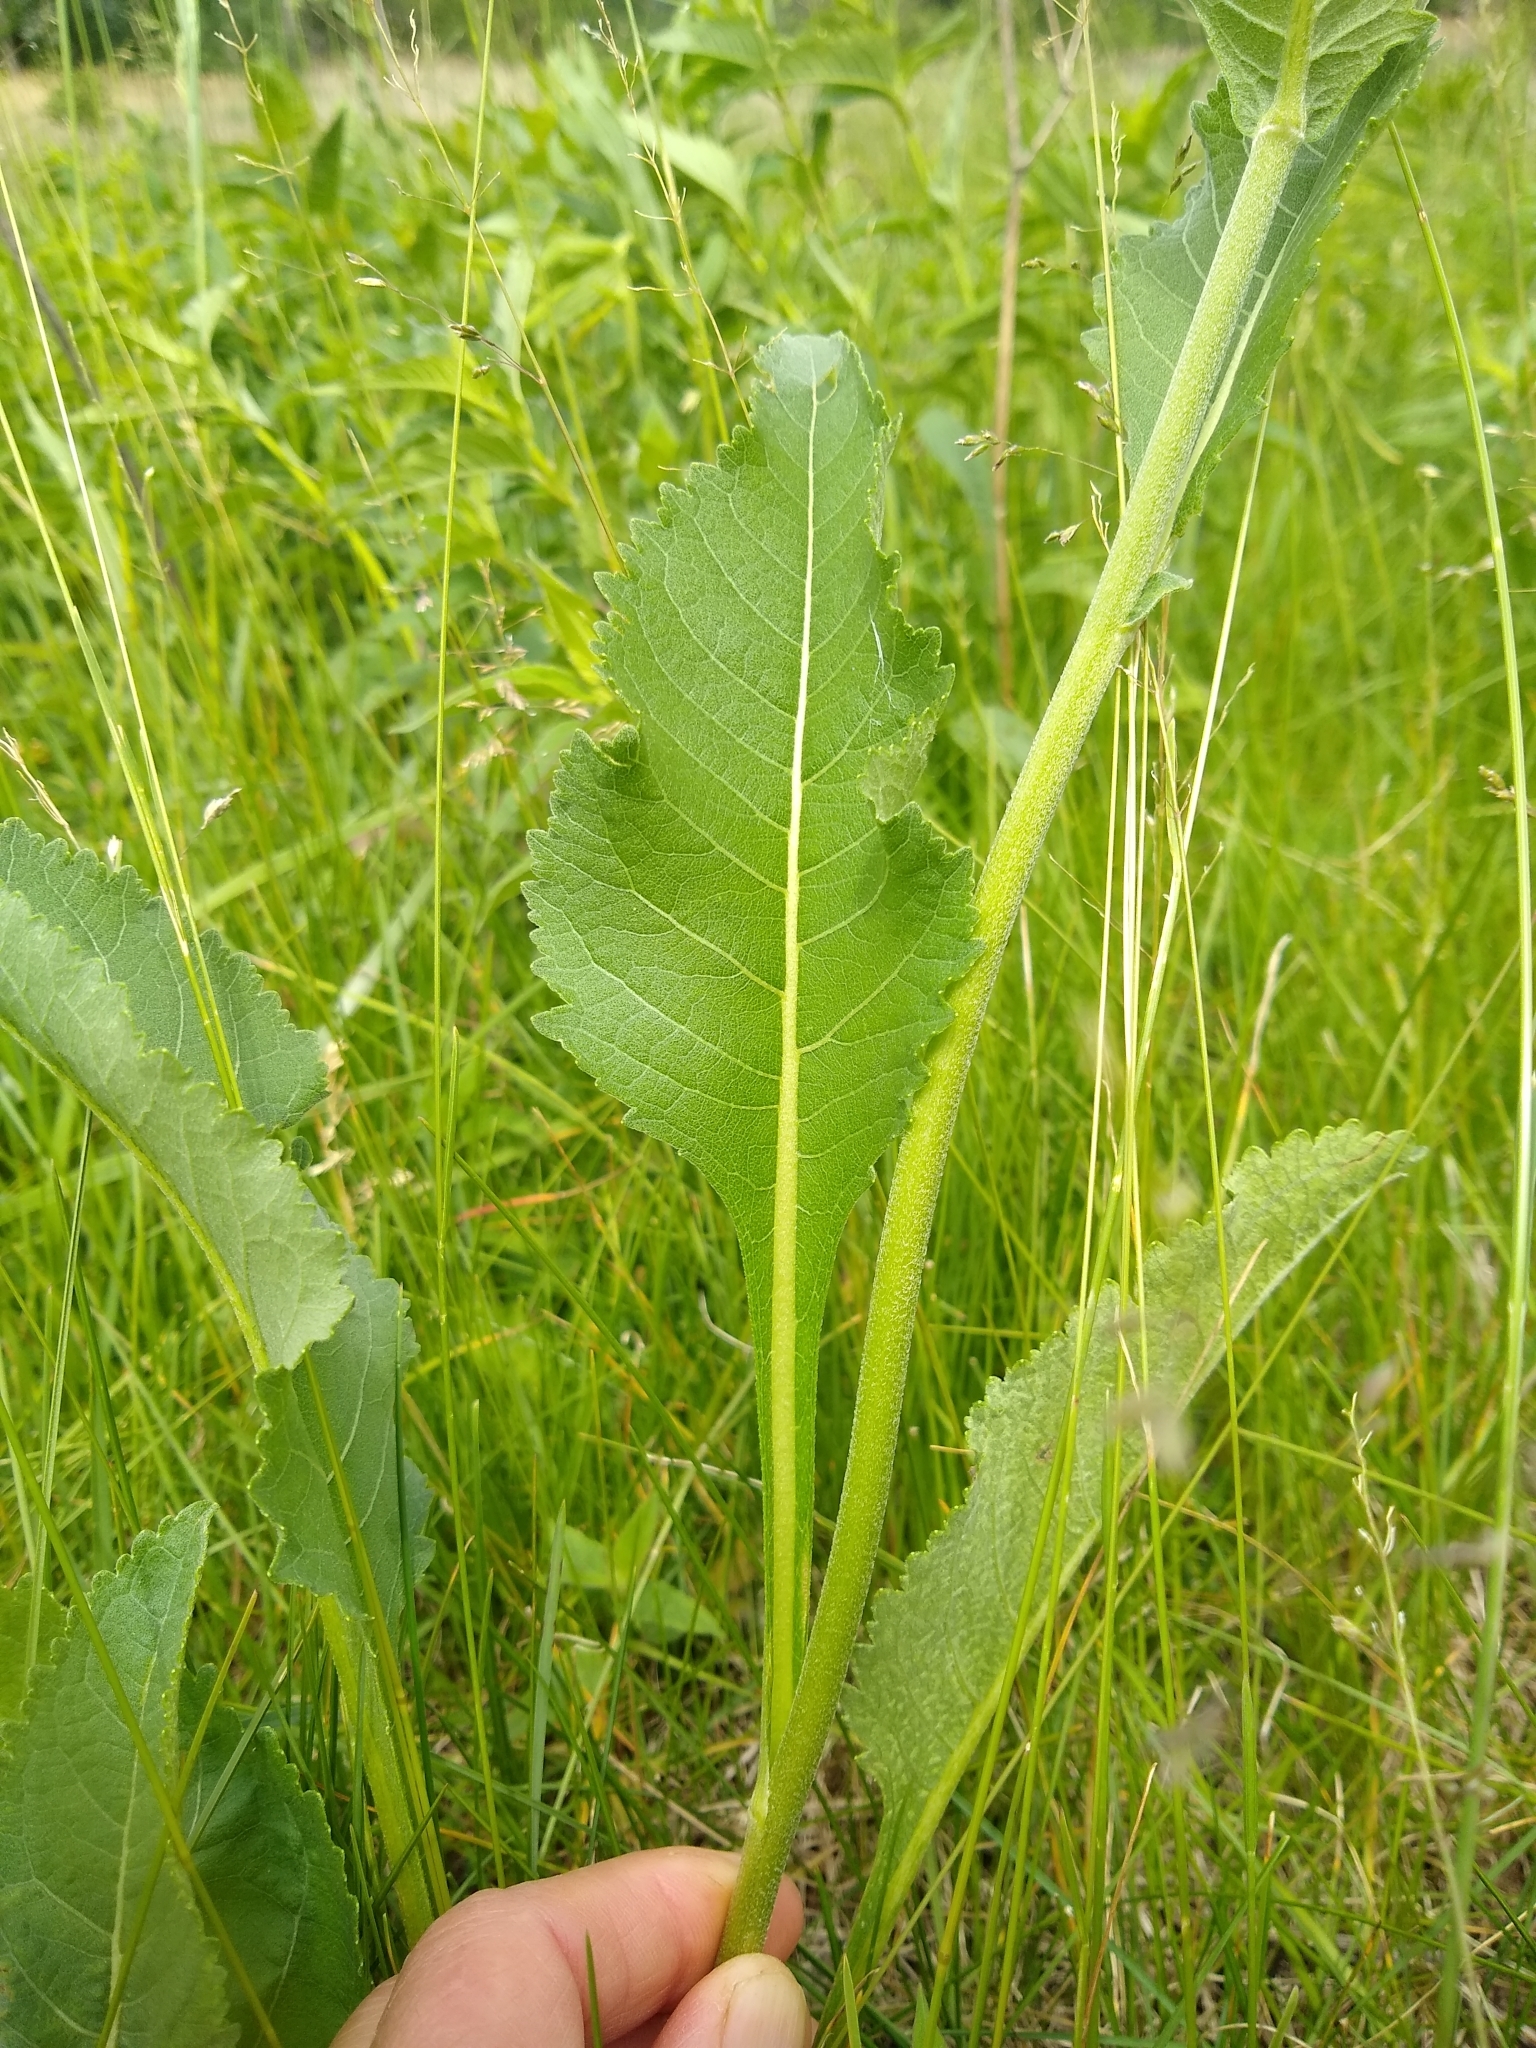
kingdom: Plantae
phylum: Tracheophyta
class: Magnoliopsida
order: Asterales
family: Asteraceae
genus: Parthenium
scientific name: Parthenium integrifolium
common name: American feverfew
